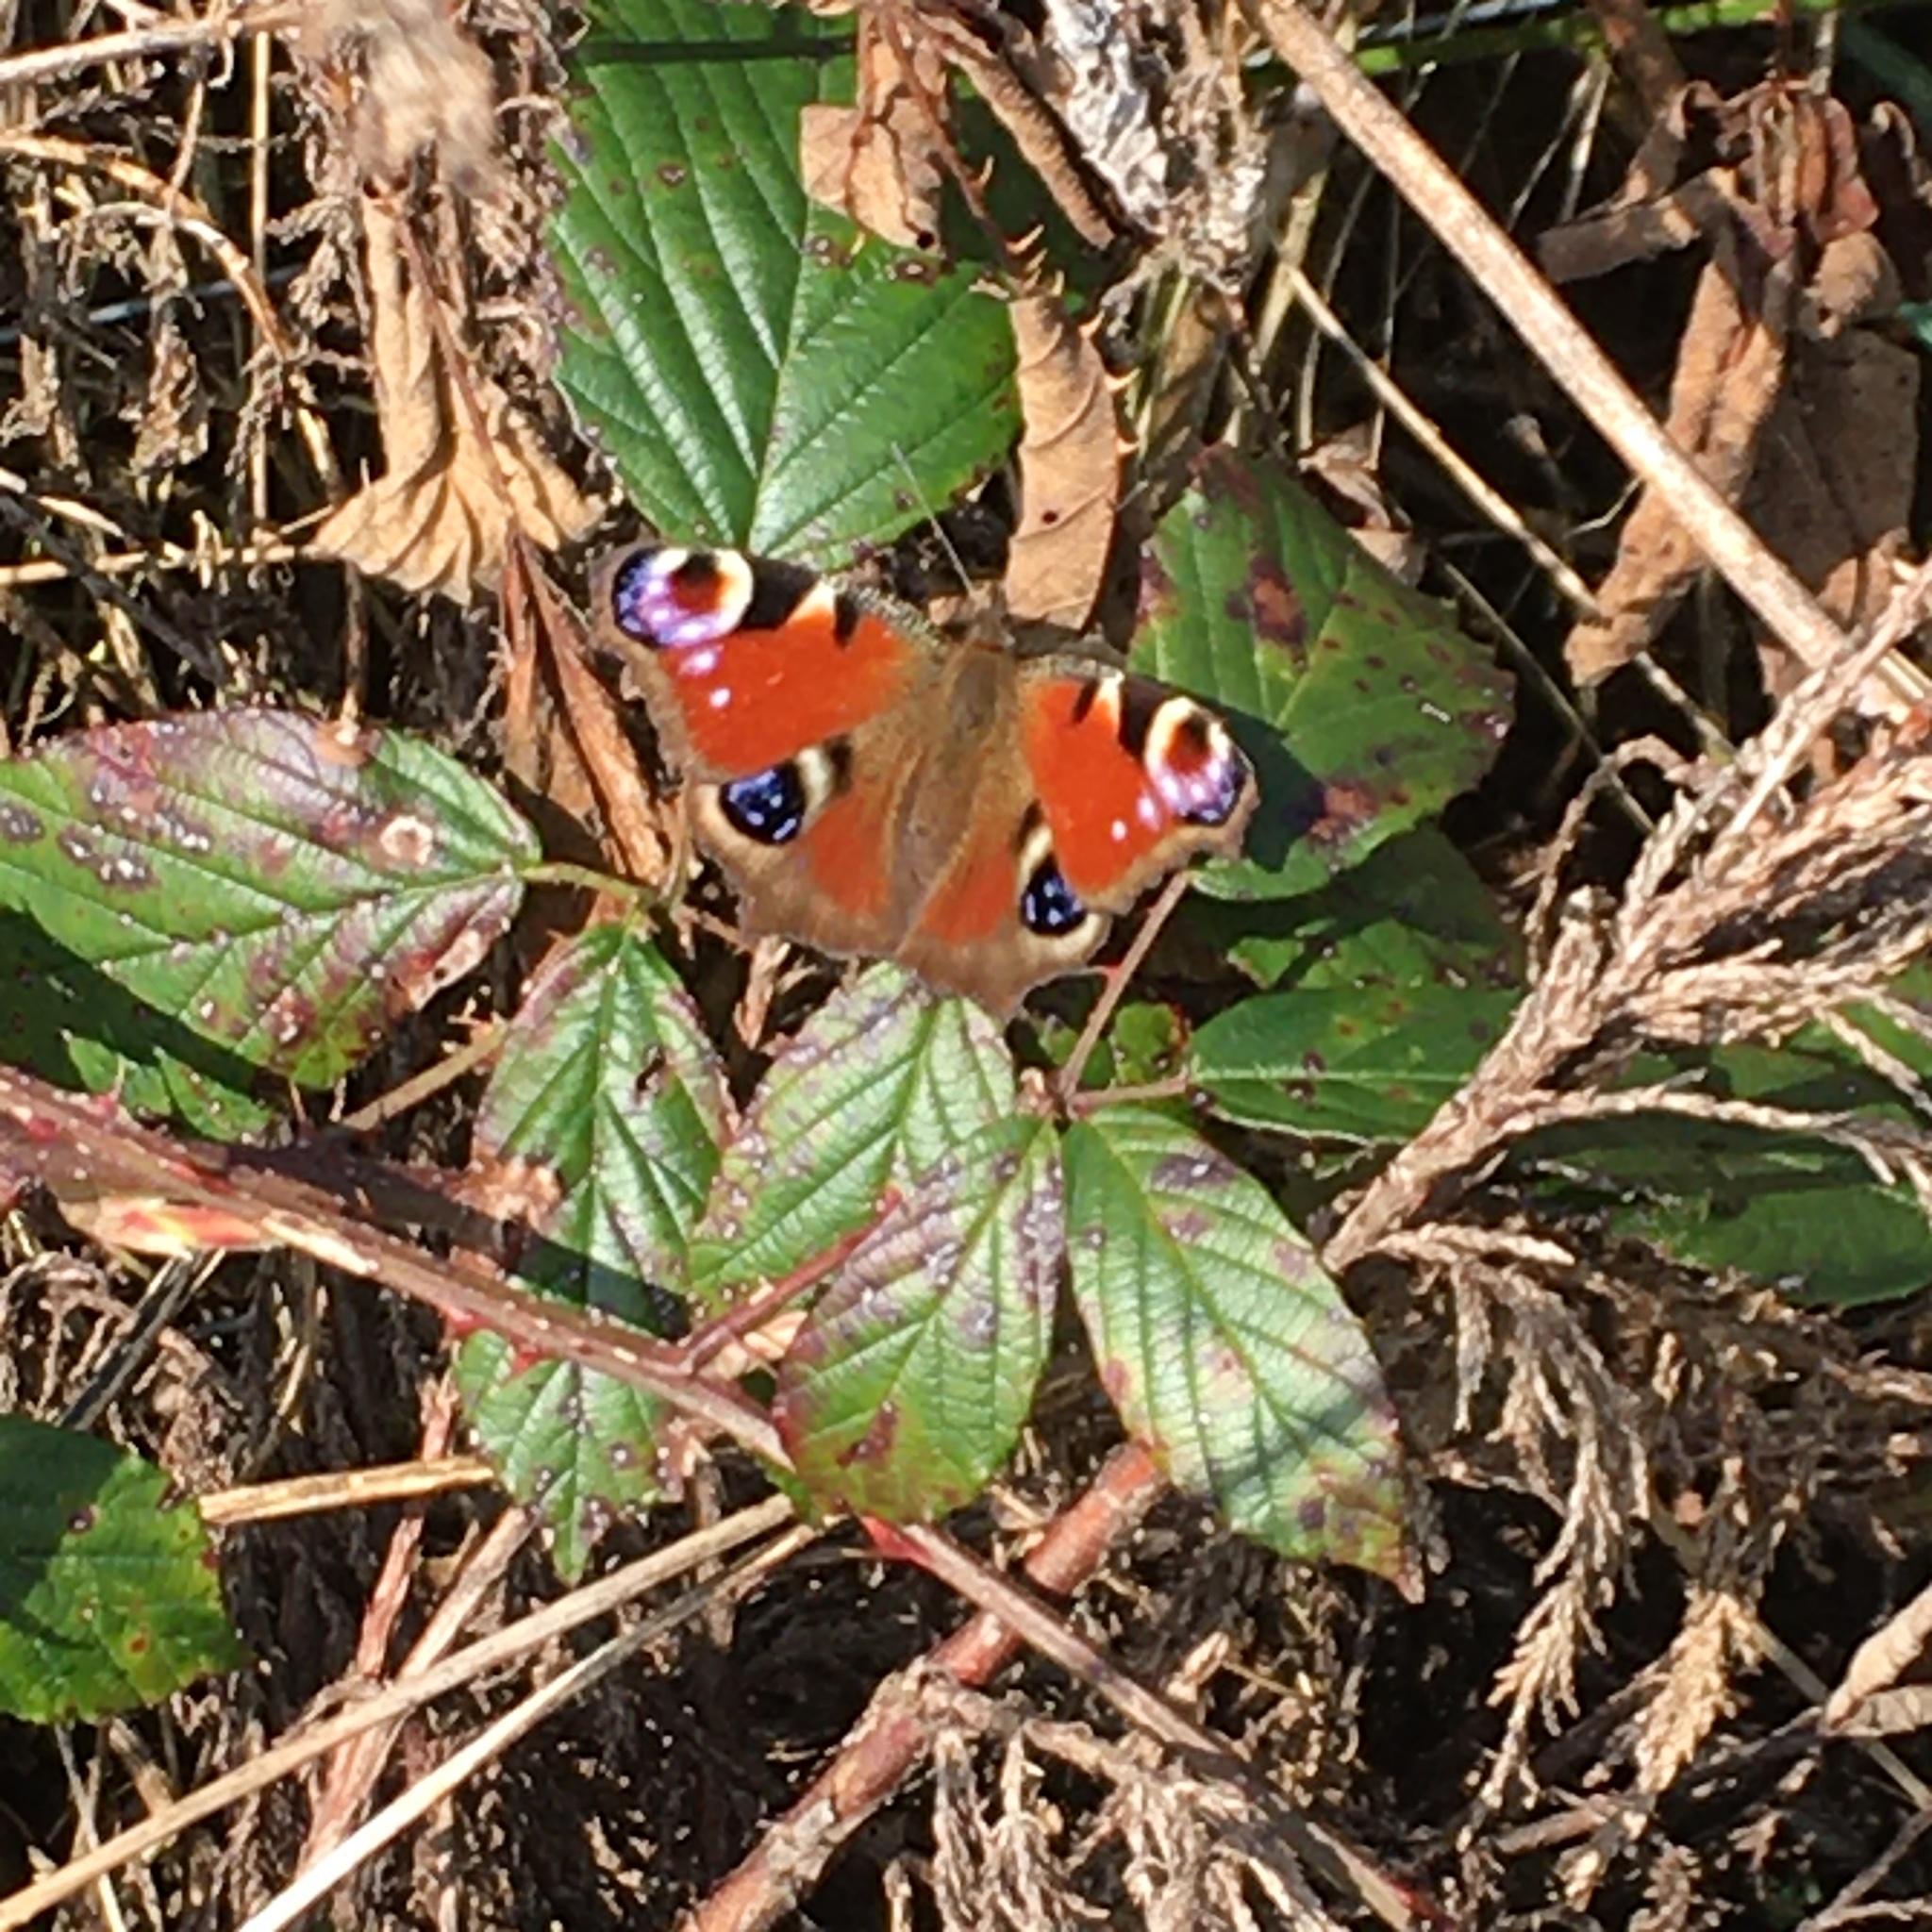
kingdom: Animalia
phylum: Arthropoda
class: Insecta
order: Lepidoptera
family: Nymphalidae
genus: Aglais
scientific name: Aglais io
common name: Peacock
